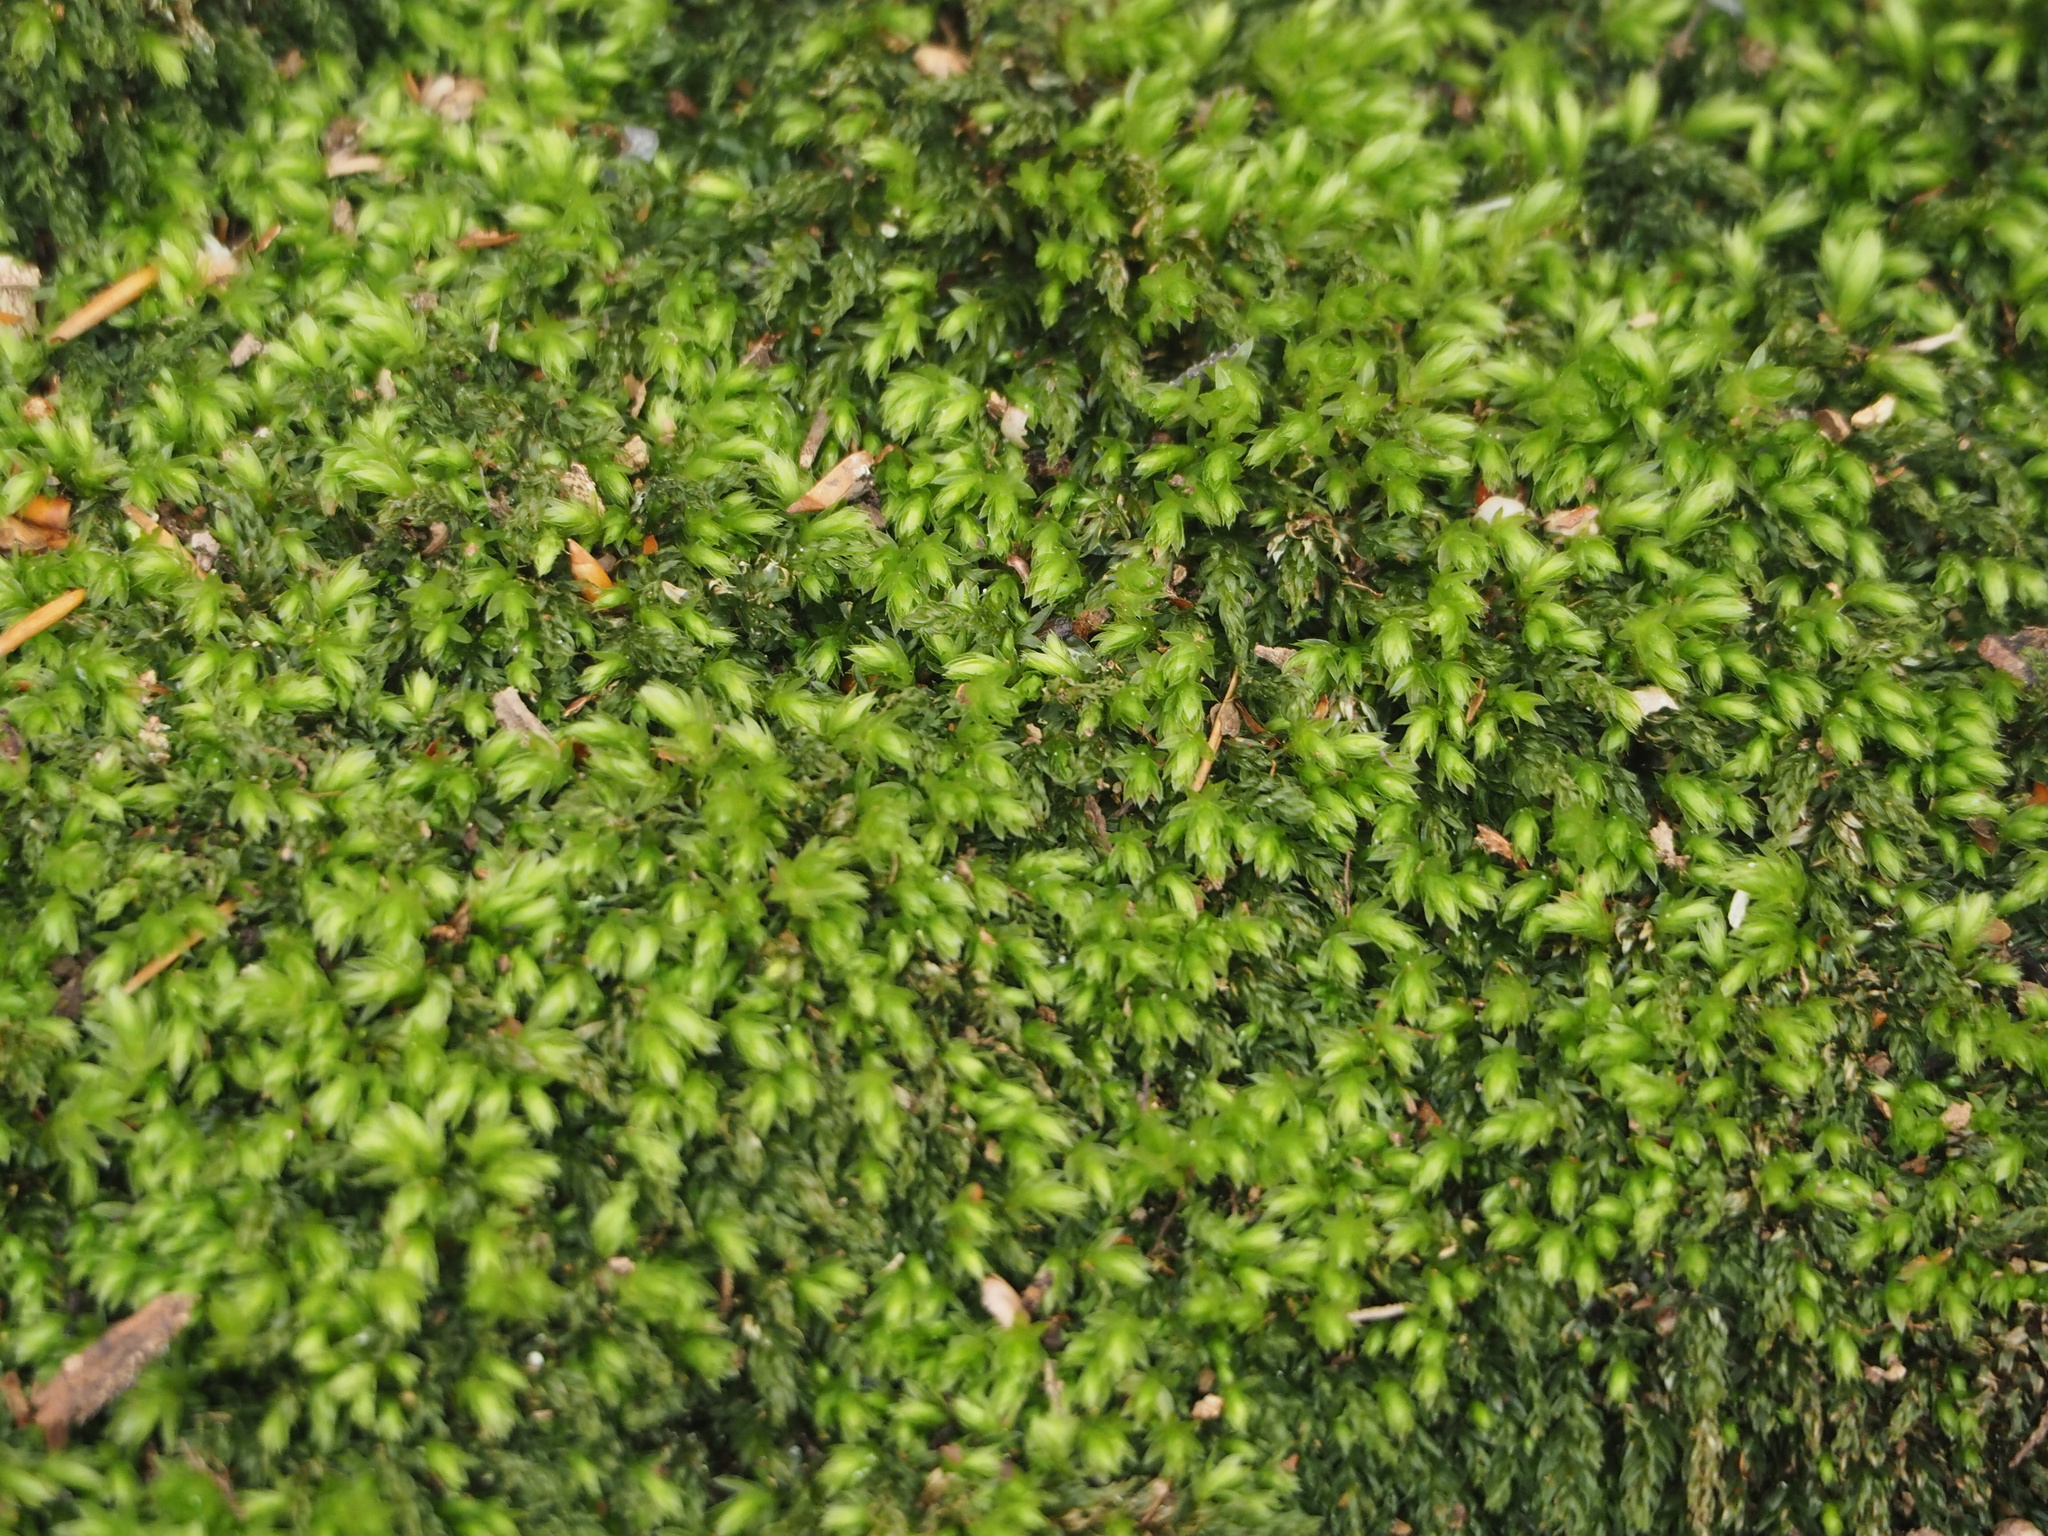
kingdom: Plantae
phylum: Bryophyta
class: Bryopsida
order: Bryales
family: Mniaceae
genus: Mnium
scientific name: Mnium hornum
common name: Swan's-neck leafy moss
